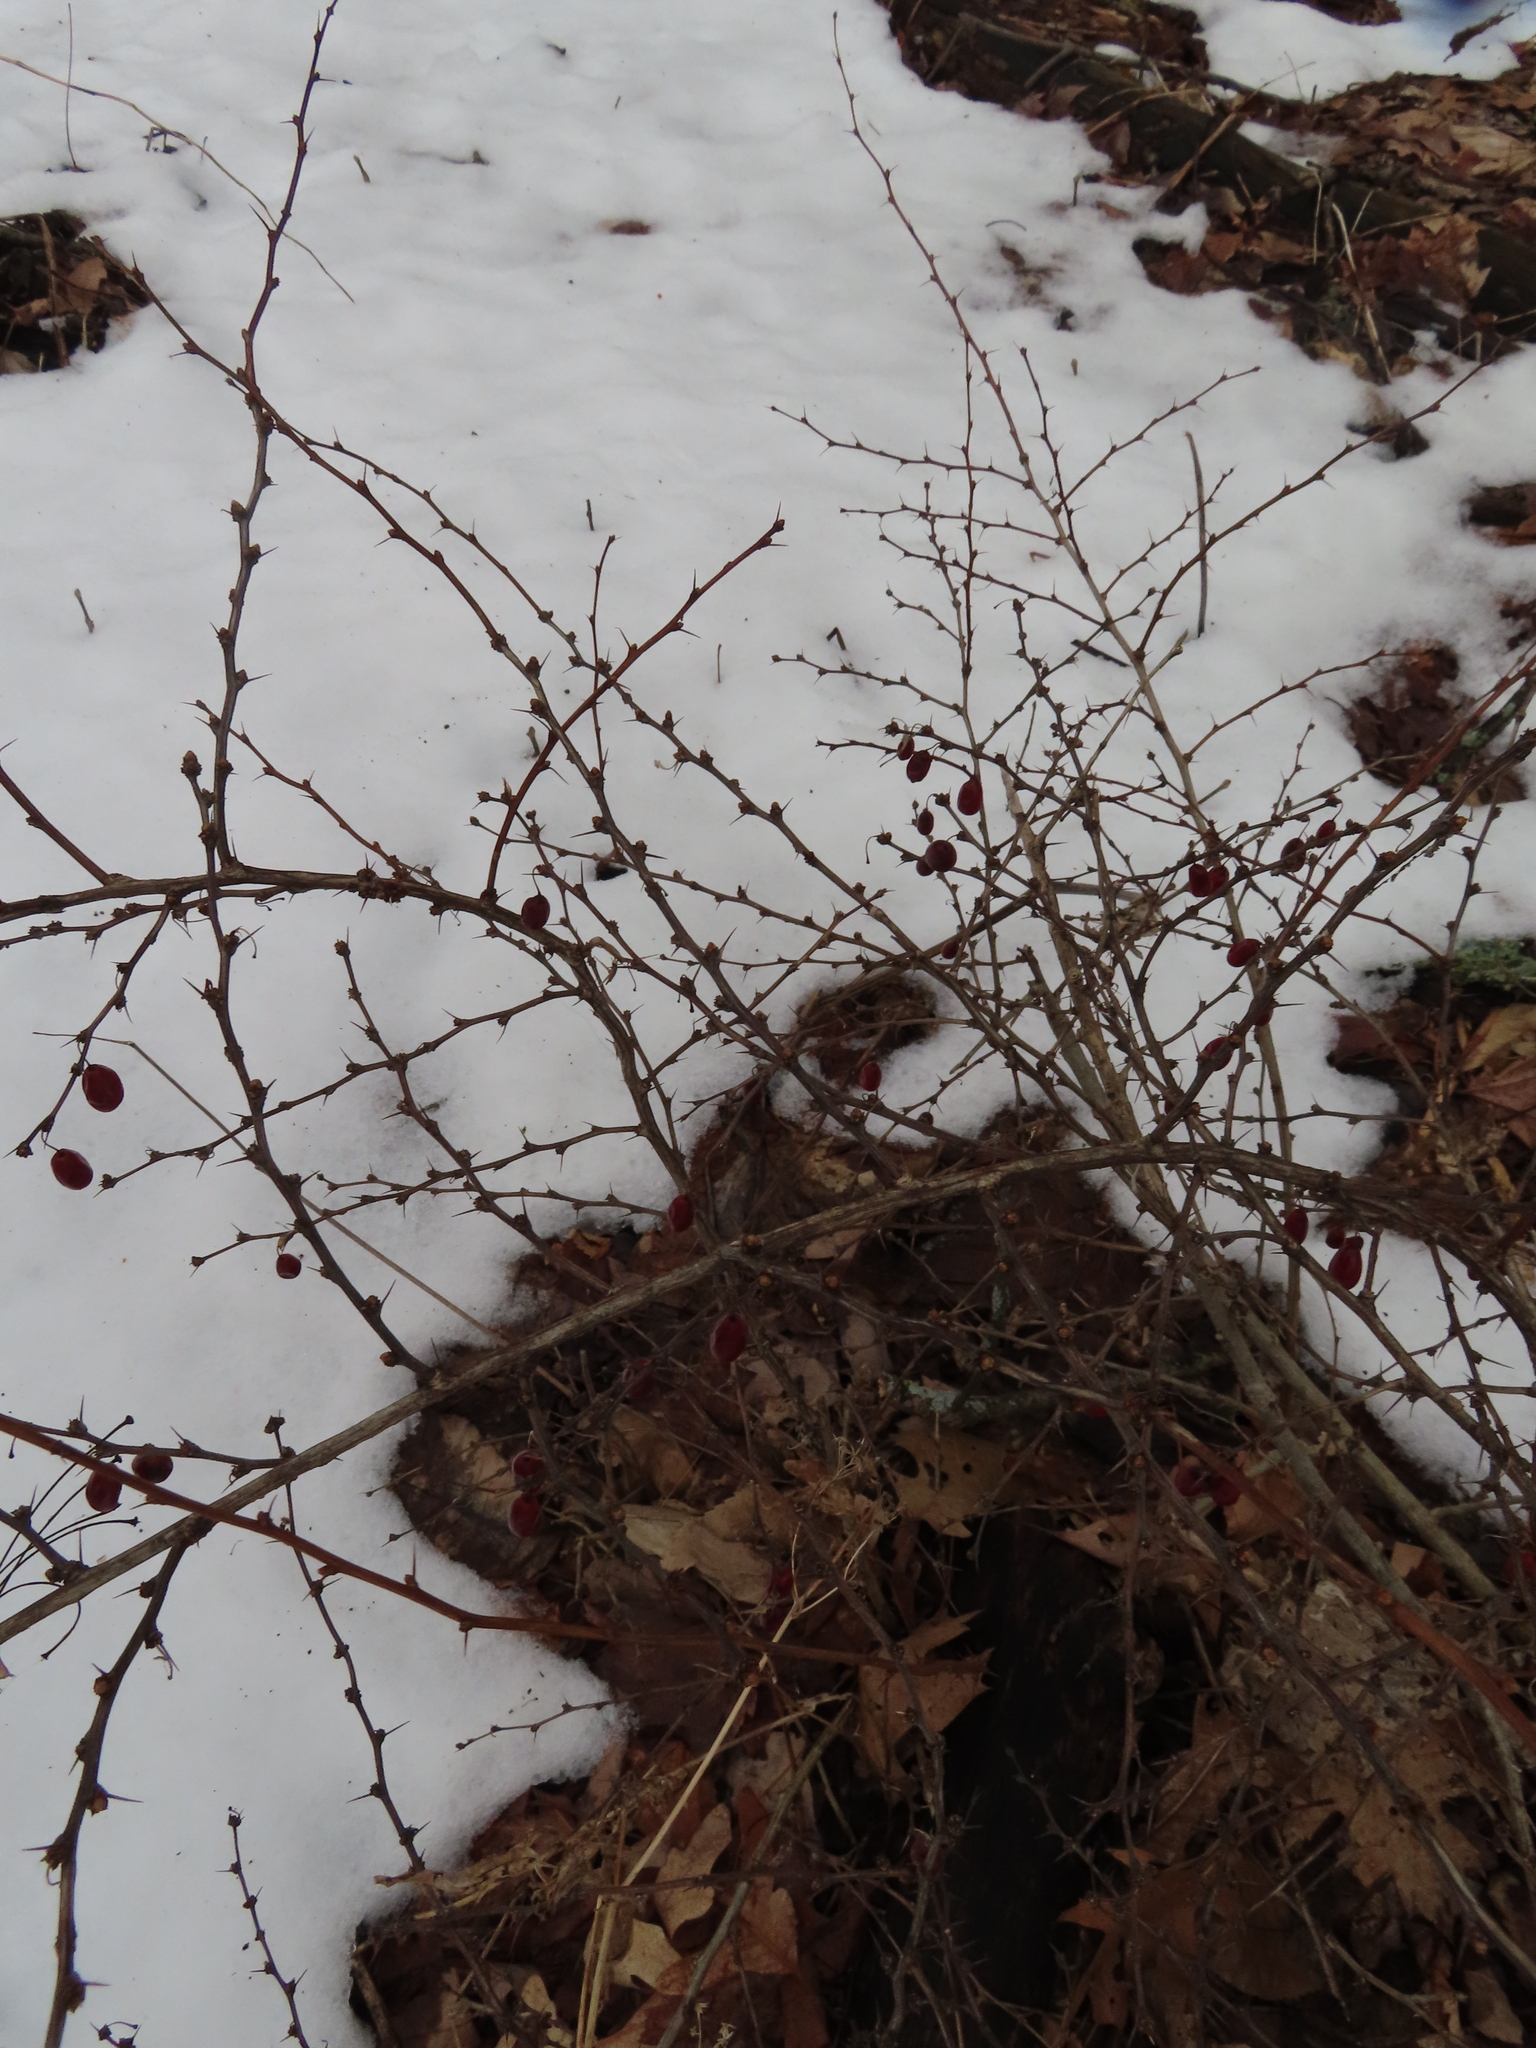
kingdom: Plantae
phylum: Tracheophyta
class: Magnoliopsida
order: Ranunculales
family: Berberidaceae
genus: Berberis
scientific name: Berberis thunbergii
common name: Japanese barberry
